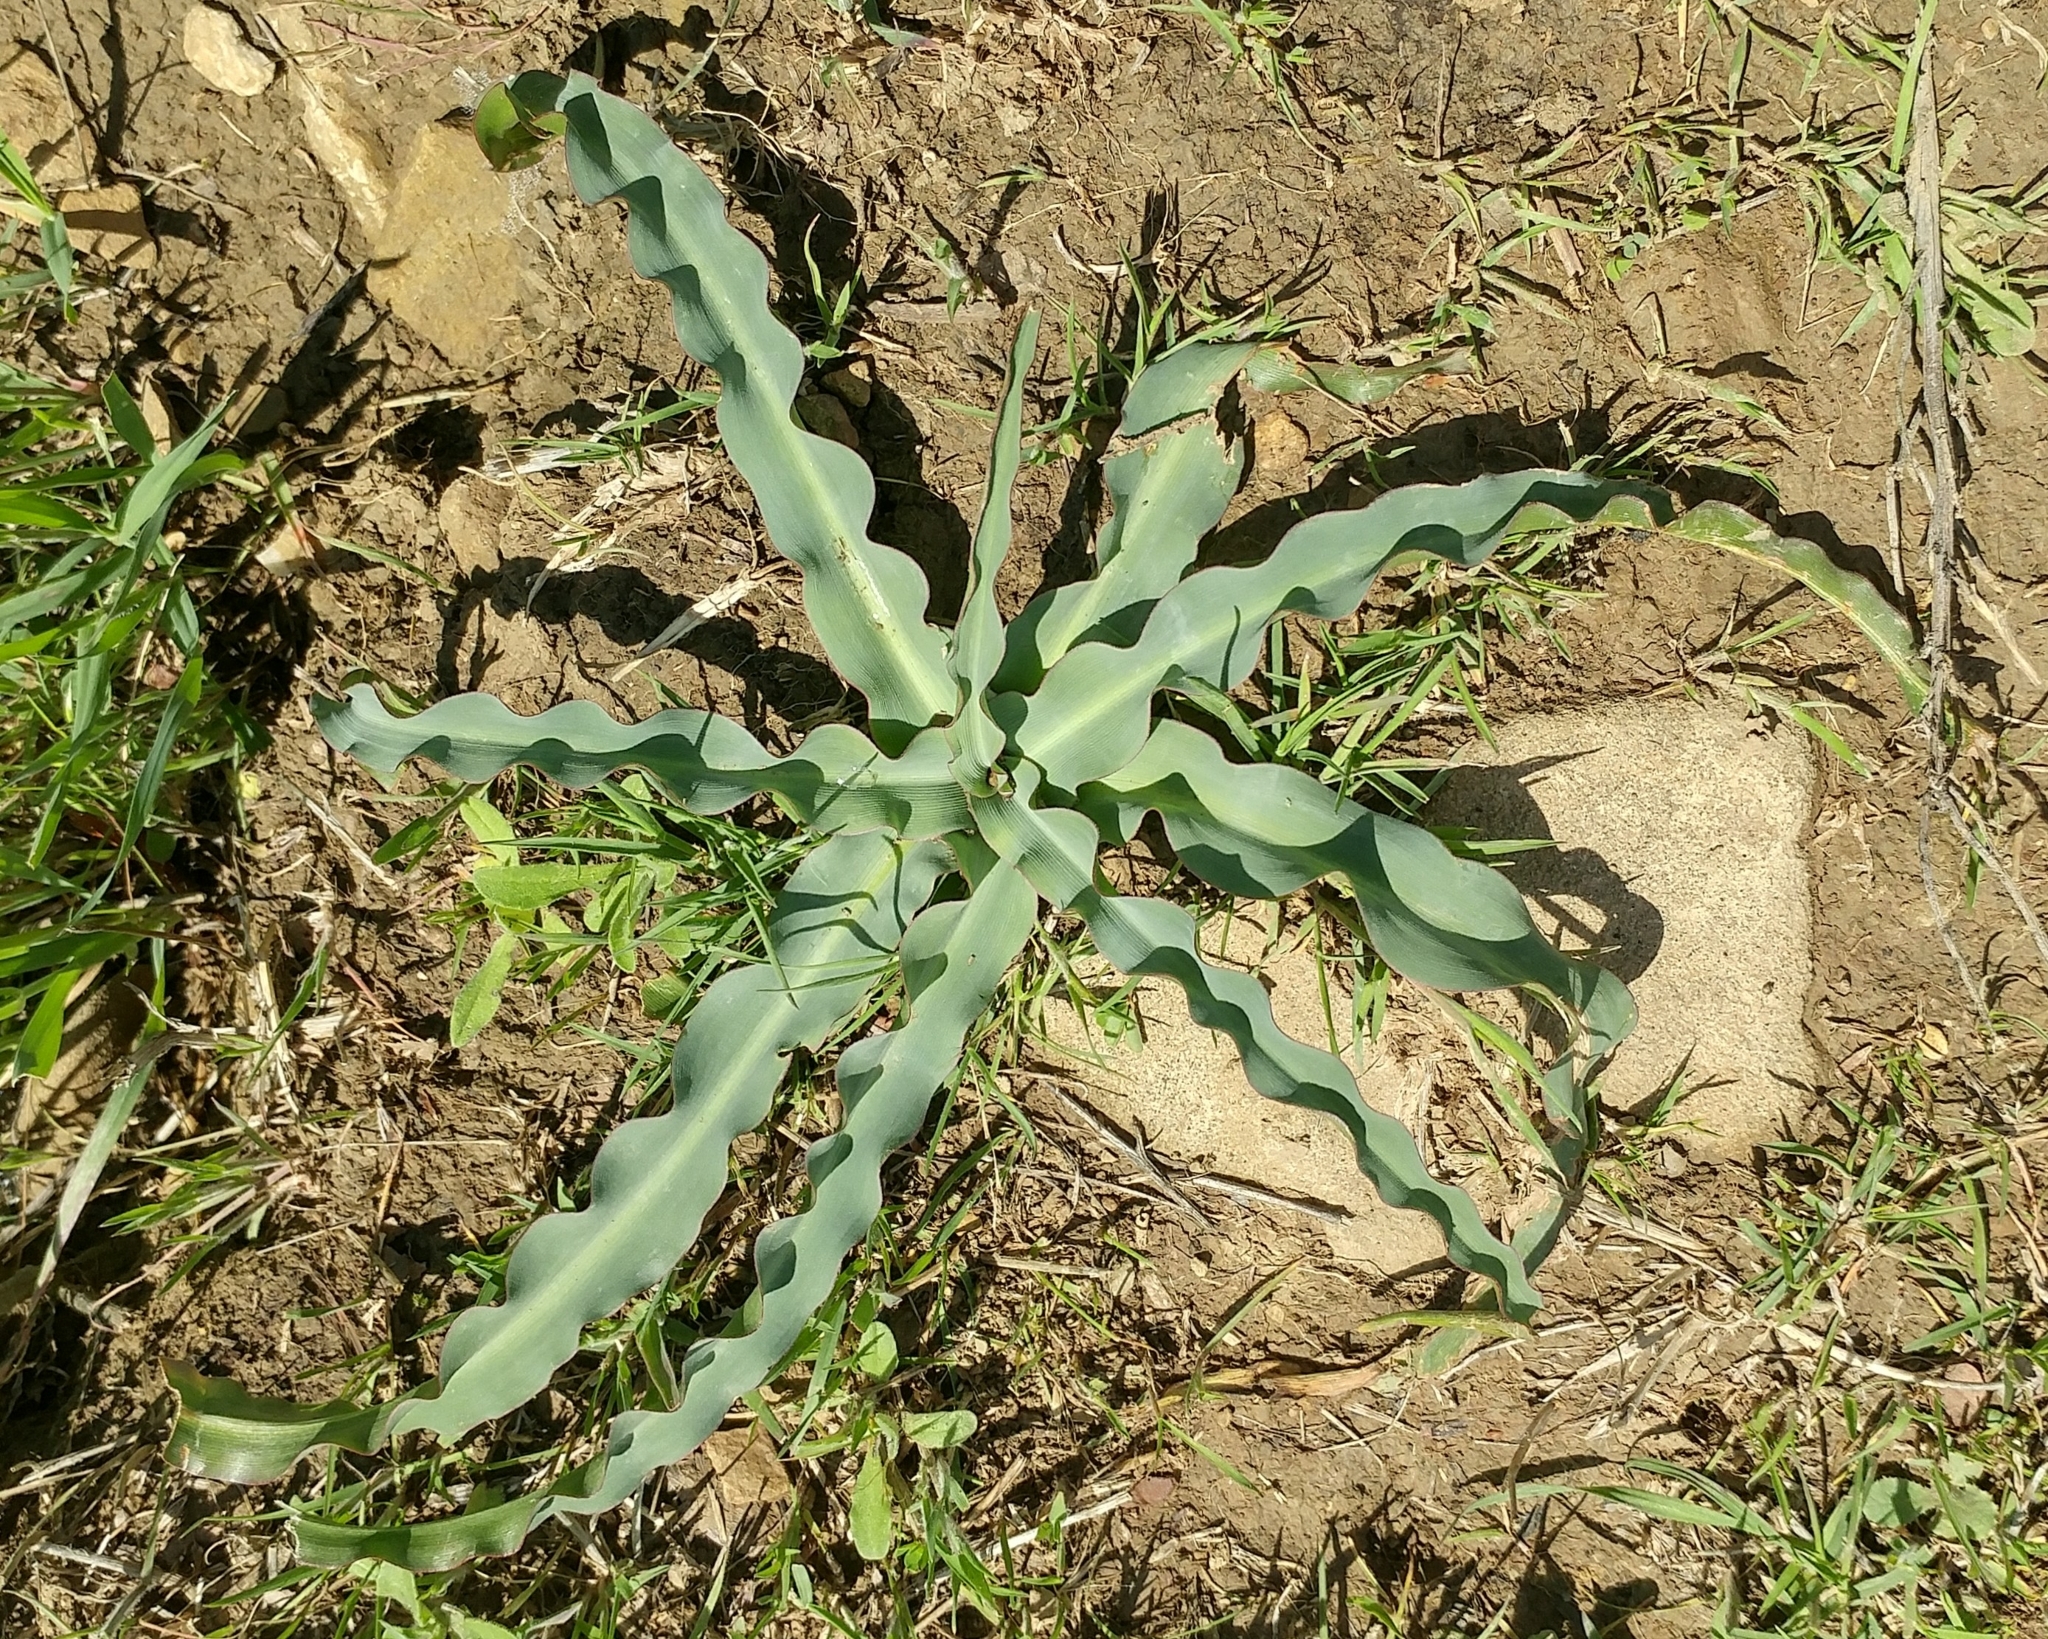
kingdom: Plantae
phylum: Tracheophyta
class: Liliopsida
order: Asparagales
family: Asparagaceae
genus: Chlorogalum
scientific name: Chlorogalum pomeridianum
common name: Amole
